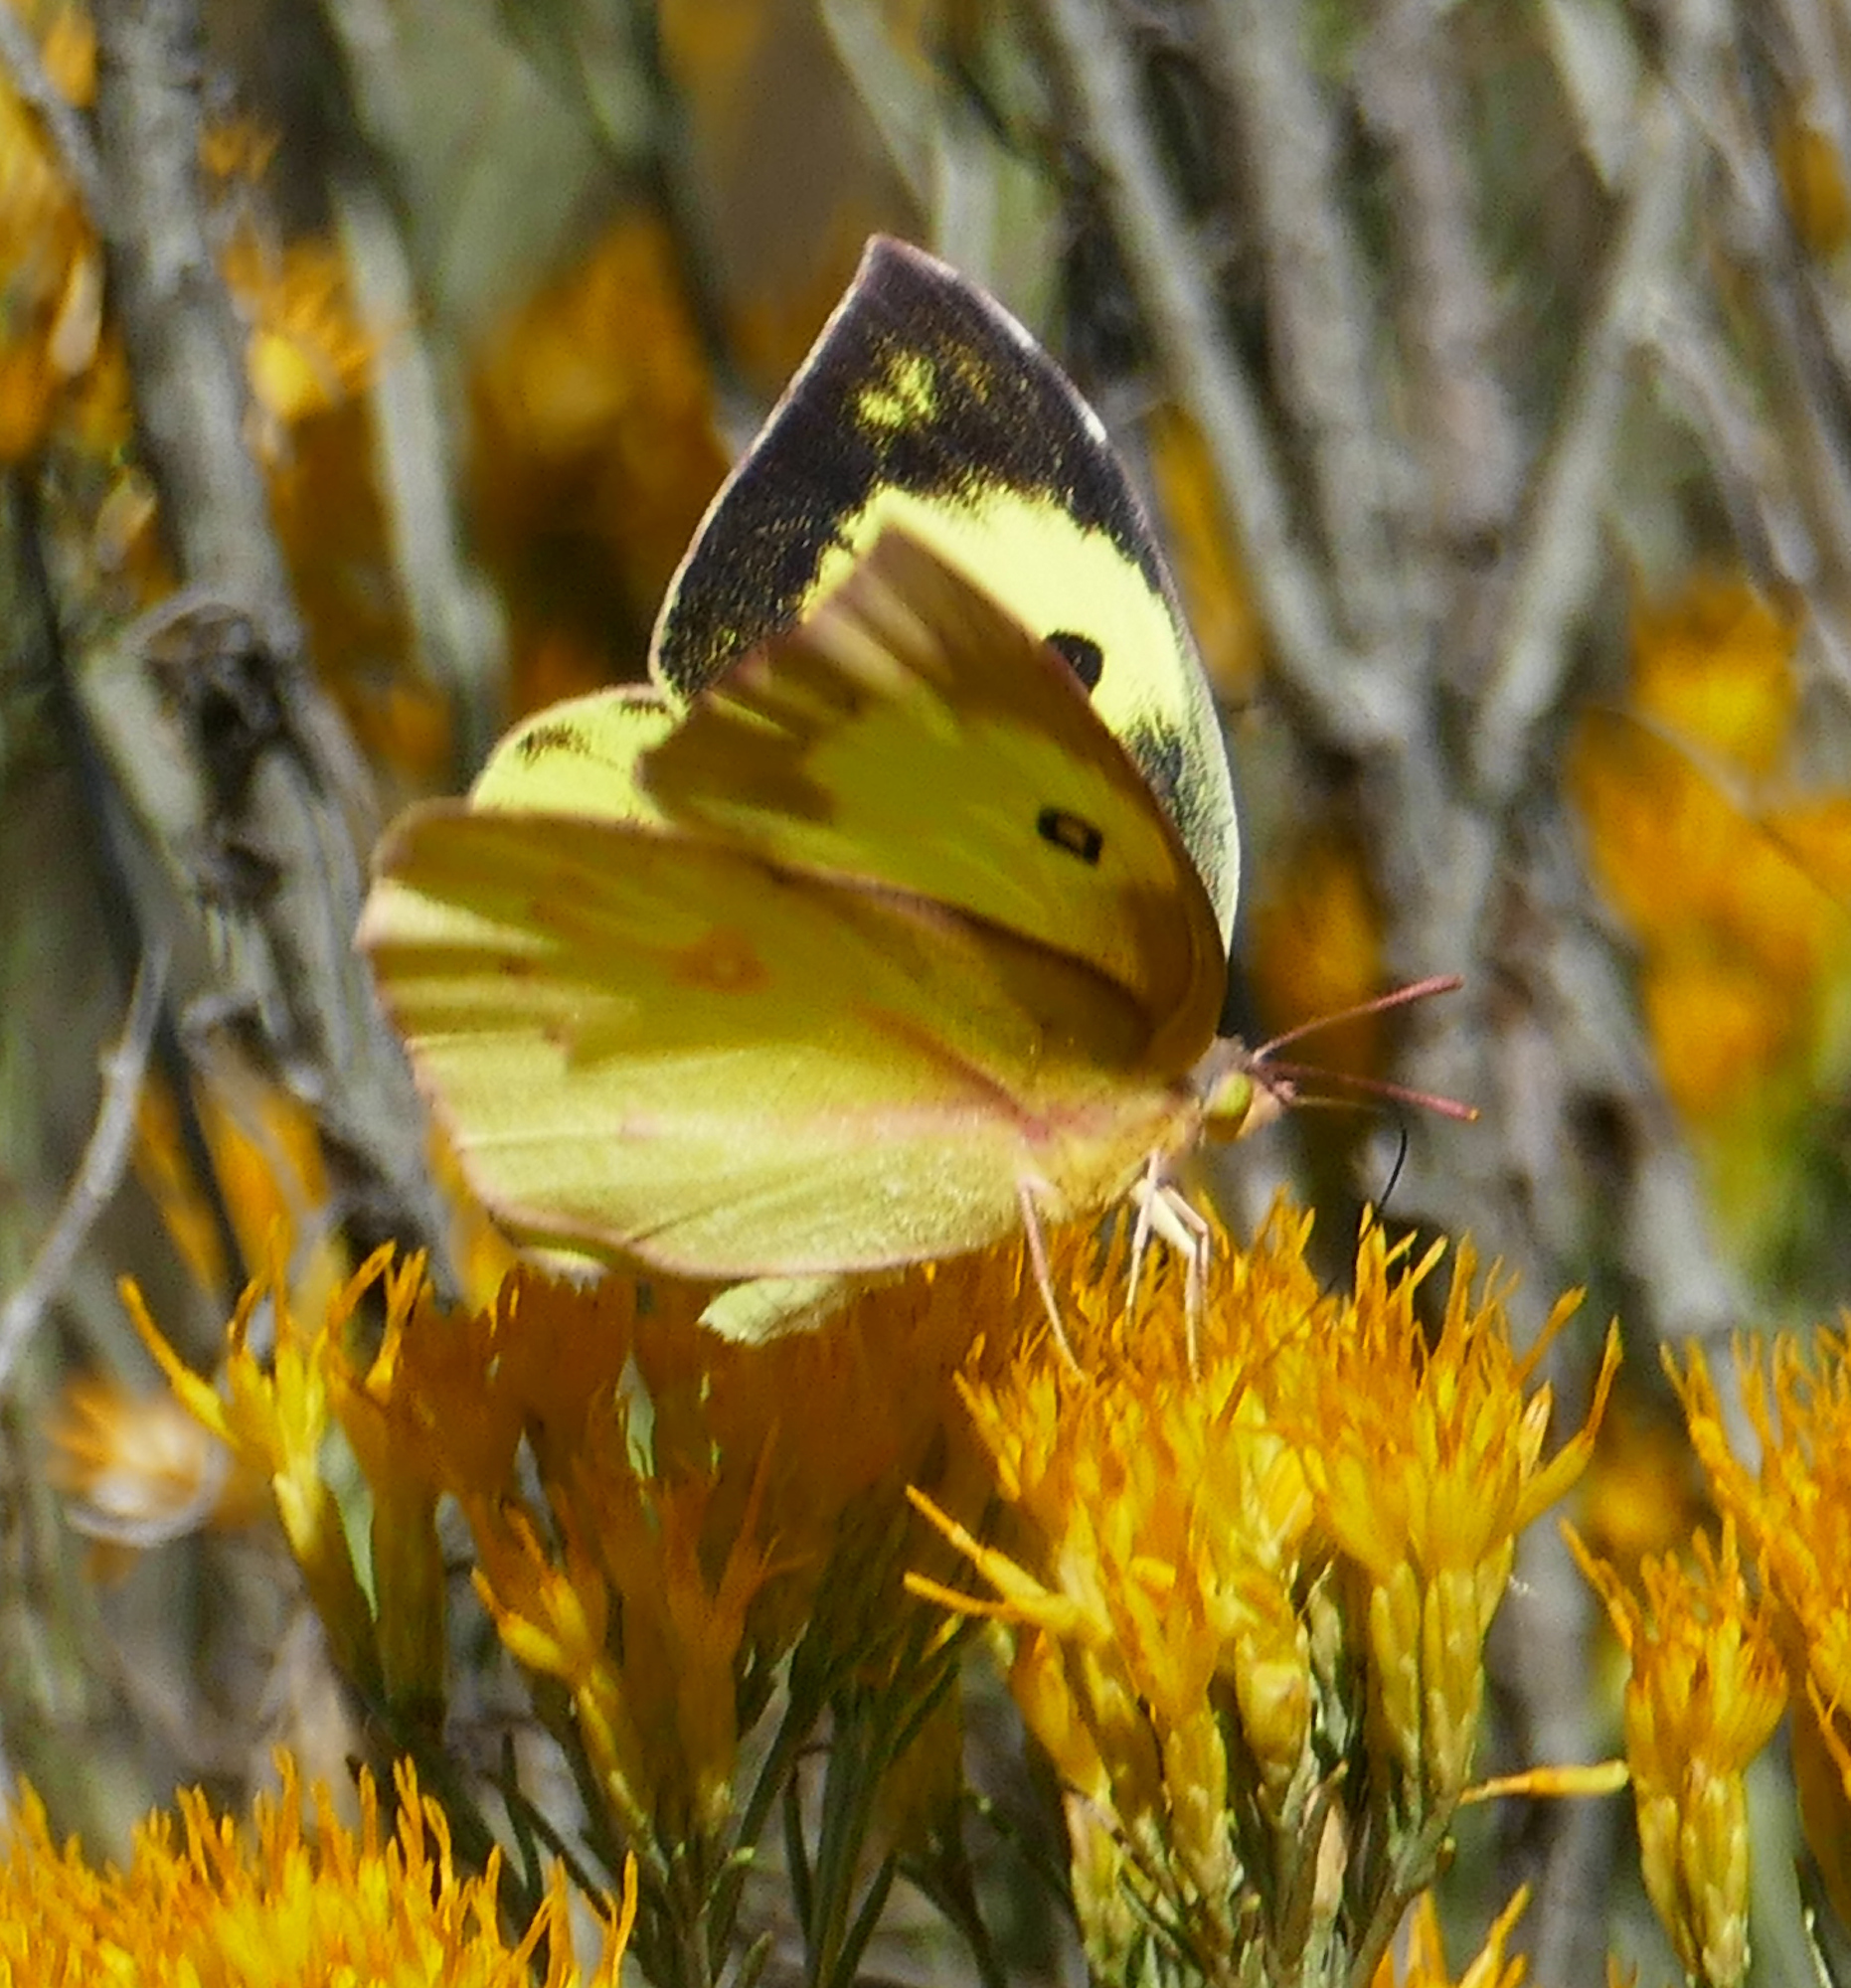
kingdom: Animalia
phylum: Arthropoda
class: Insecta
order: Lepidoptera
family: Pieridae
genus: Zerene
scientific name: Zerene cesonia
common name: Southern dogface
